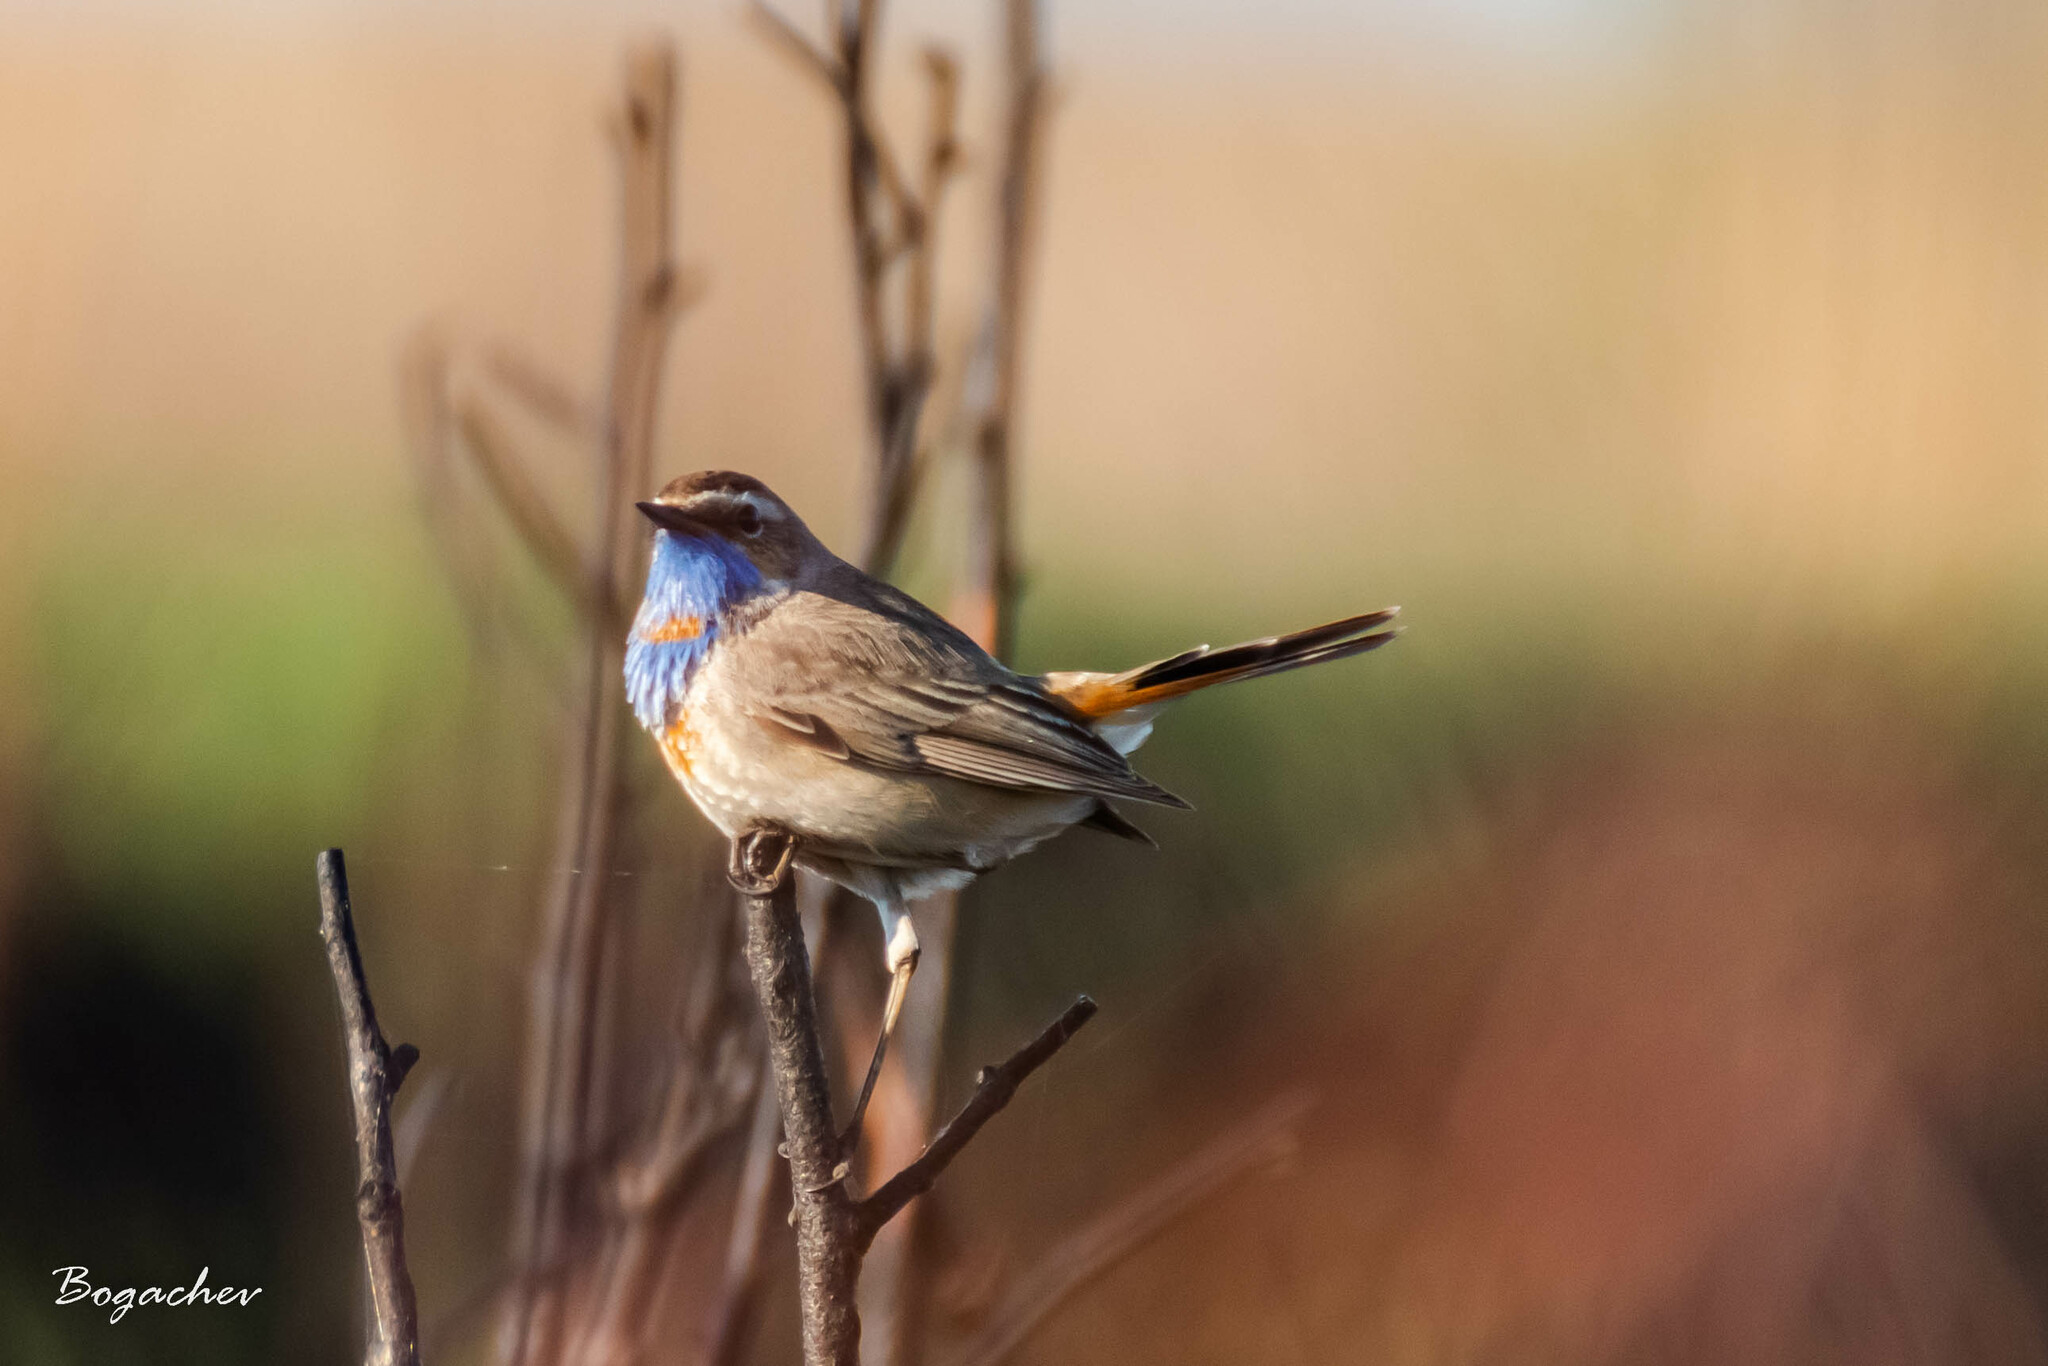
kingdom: Animalia
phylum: Chordata
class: Aves
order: Passeriformes
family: Muscicapidae
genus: Luscinia
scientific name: Luscinia svecica
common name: Bluethroat
